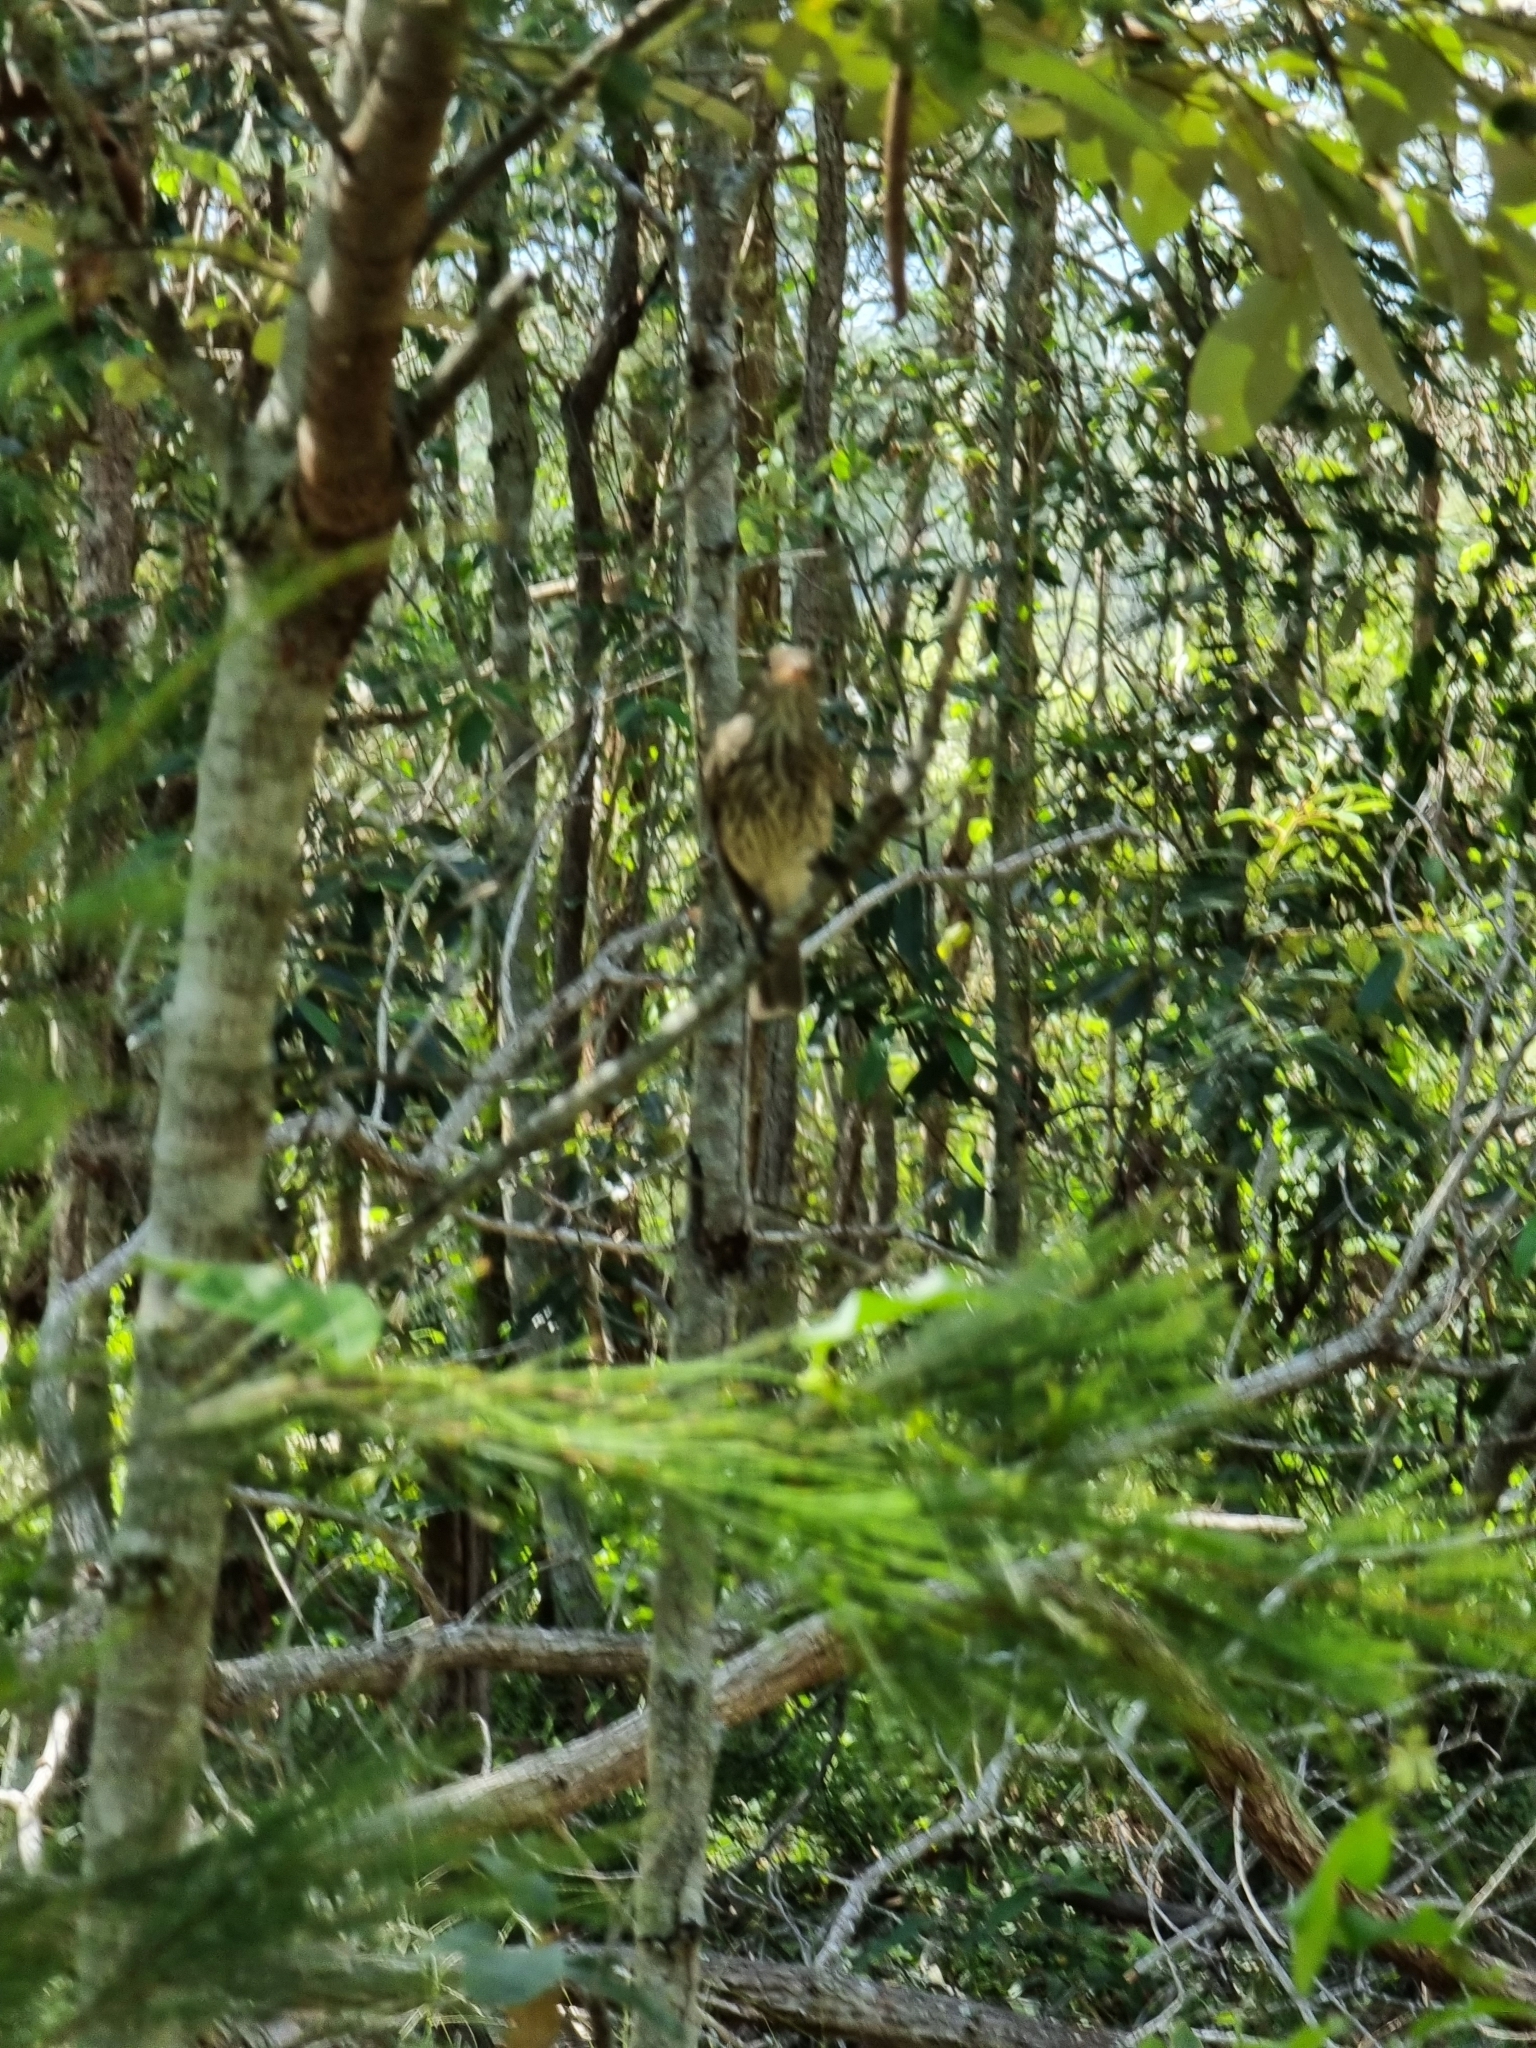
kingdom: Animalia
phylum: Chordata
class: Aves
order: Passeriformes
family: Pachycephalidae
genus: Pachycephala
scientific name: Pachycephala rufiventris
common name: Rufous whistler
